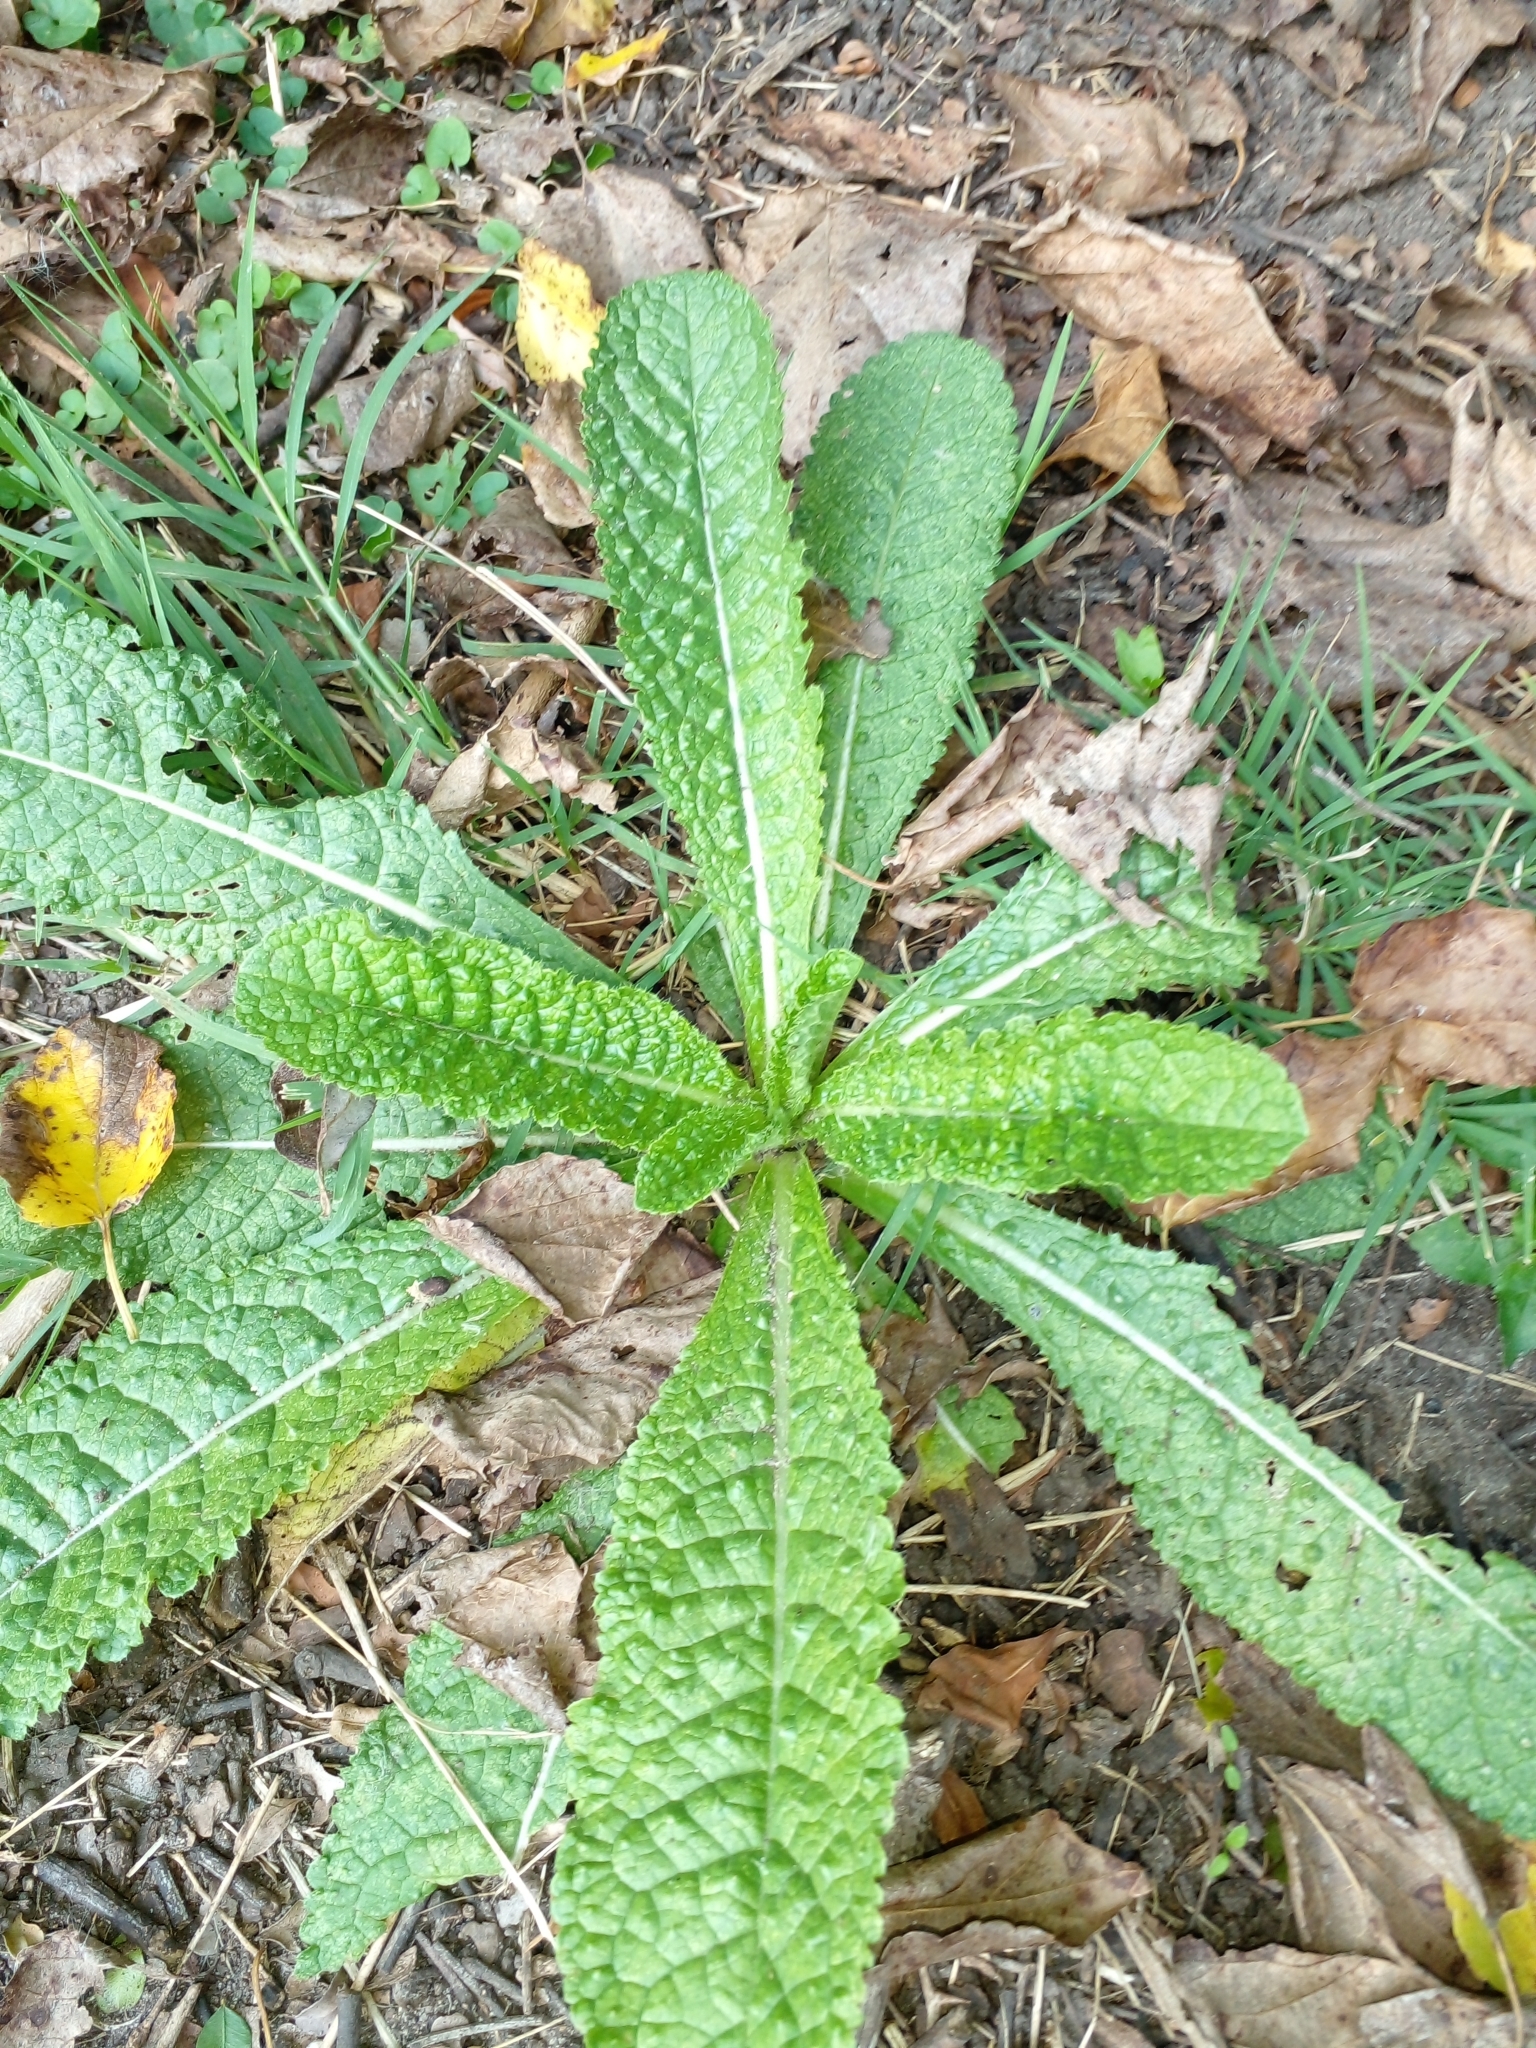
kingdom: Plantae
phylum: Tracheophyta
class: Magnoliopsida
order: Dipsacales
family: Caprifoliaceae
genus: Dipsacus
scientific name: Dipsacus fullonum
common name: Teasel
